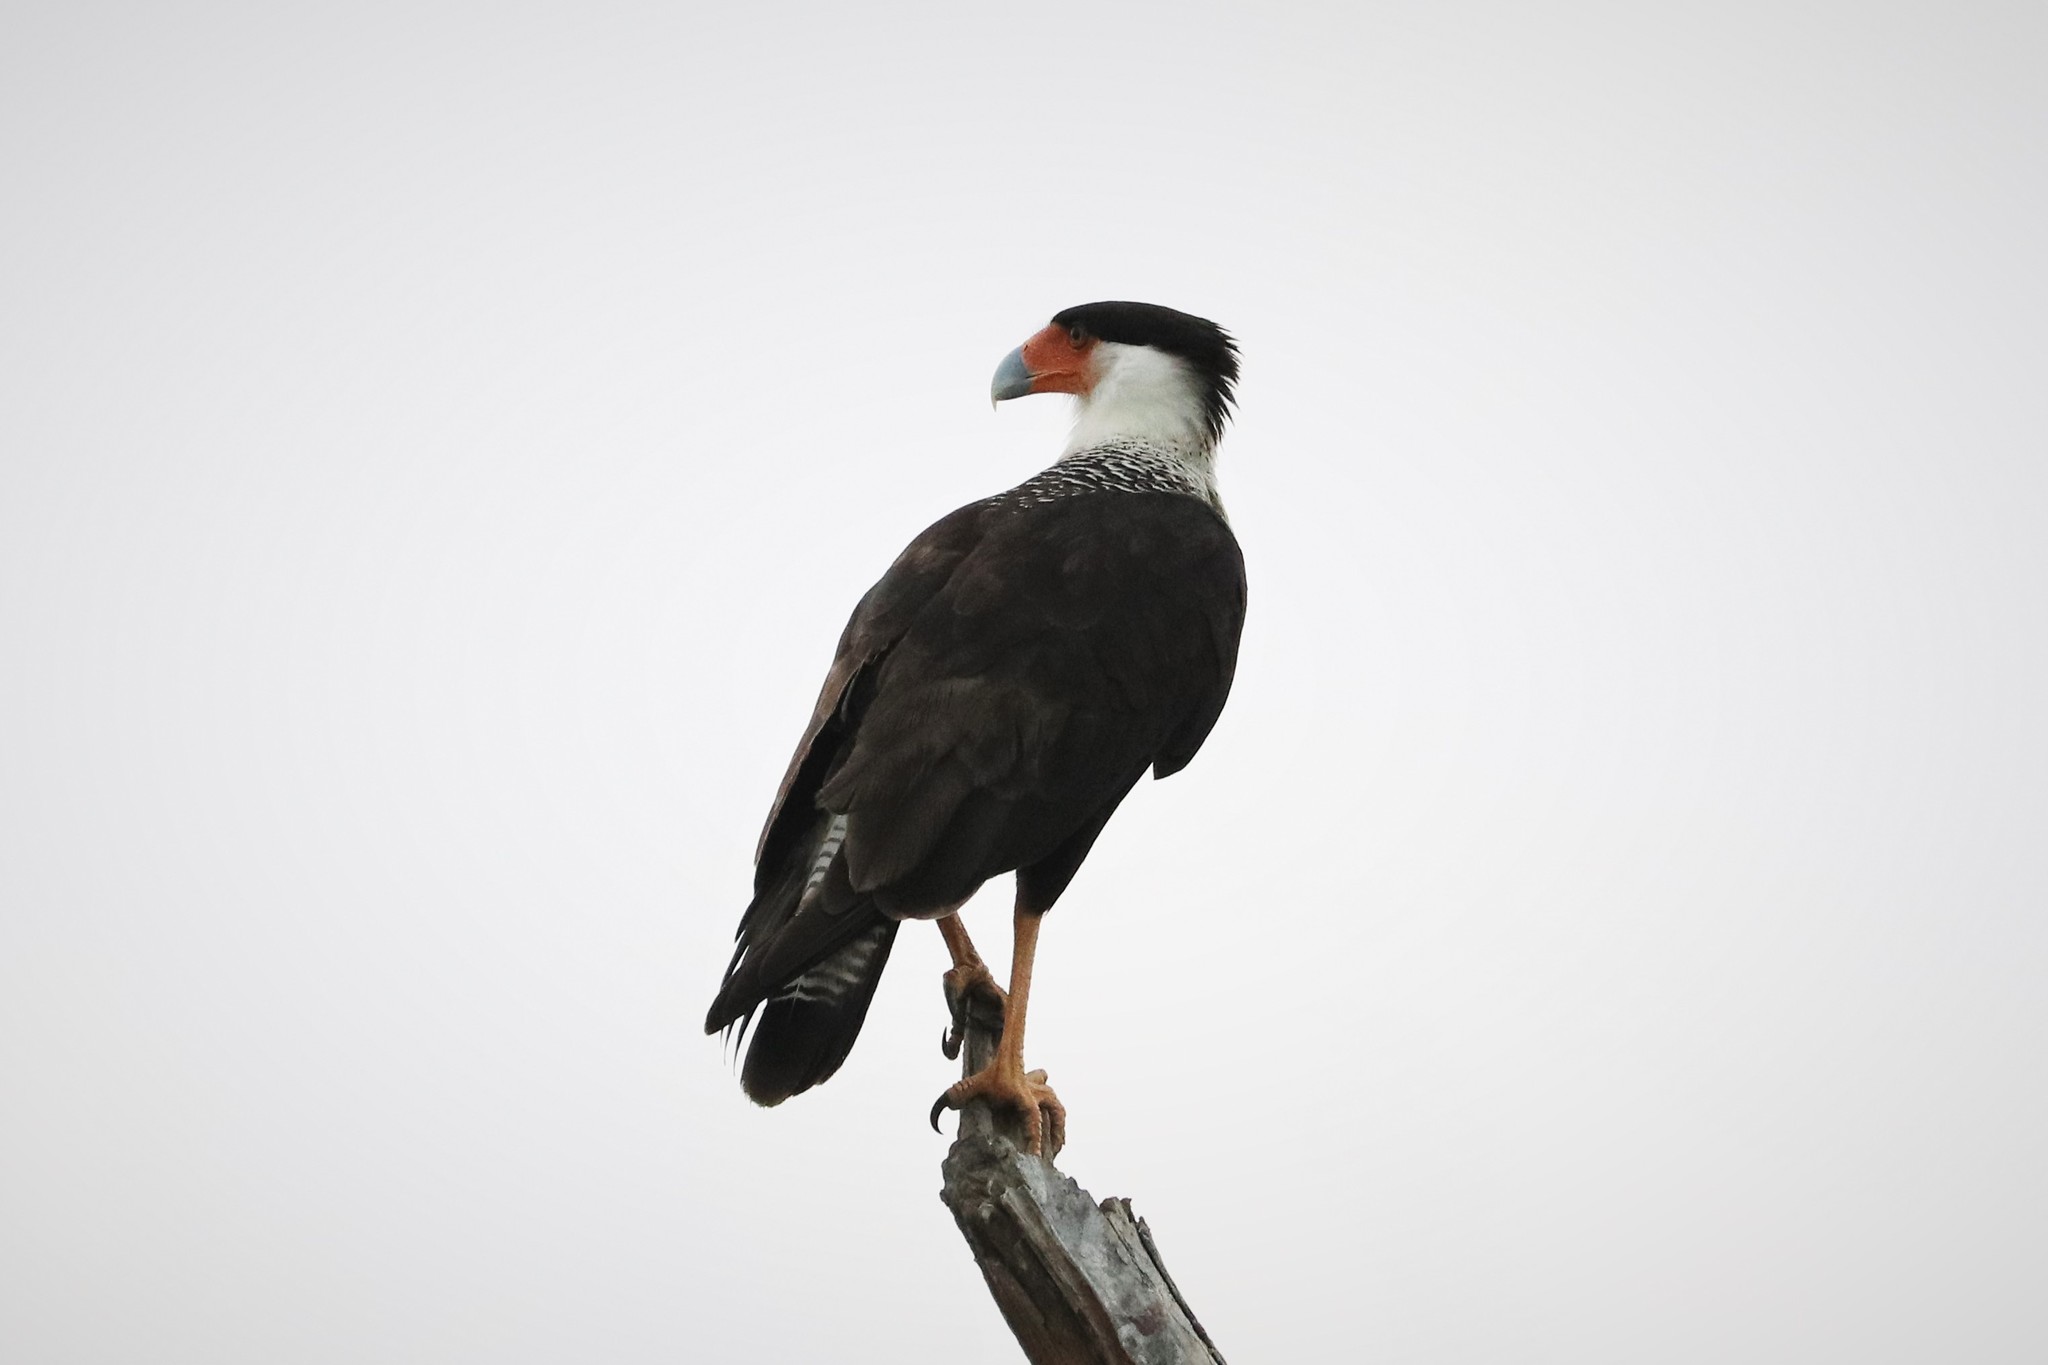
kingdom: Animalia
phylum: Chordata
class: Aves
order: Falconiformes
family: Falconidae
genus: Caracara
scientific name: Caracara plancus
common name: Southern caracara
